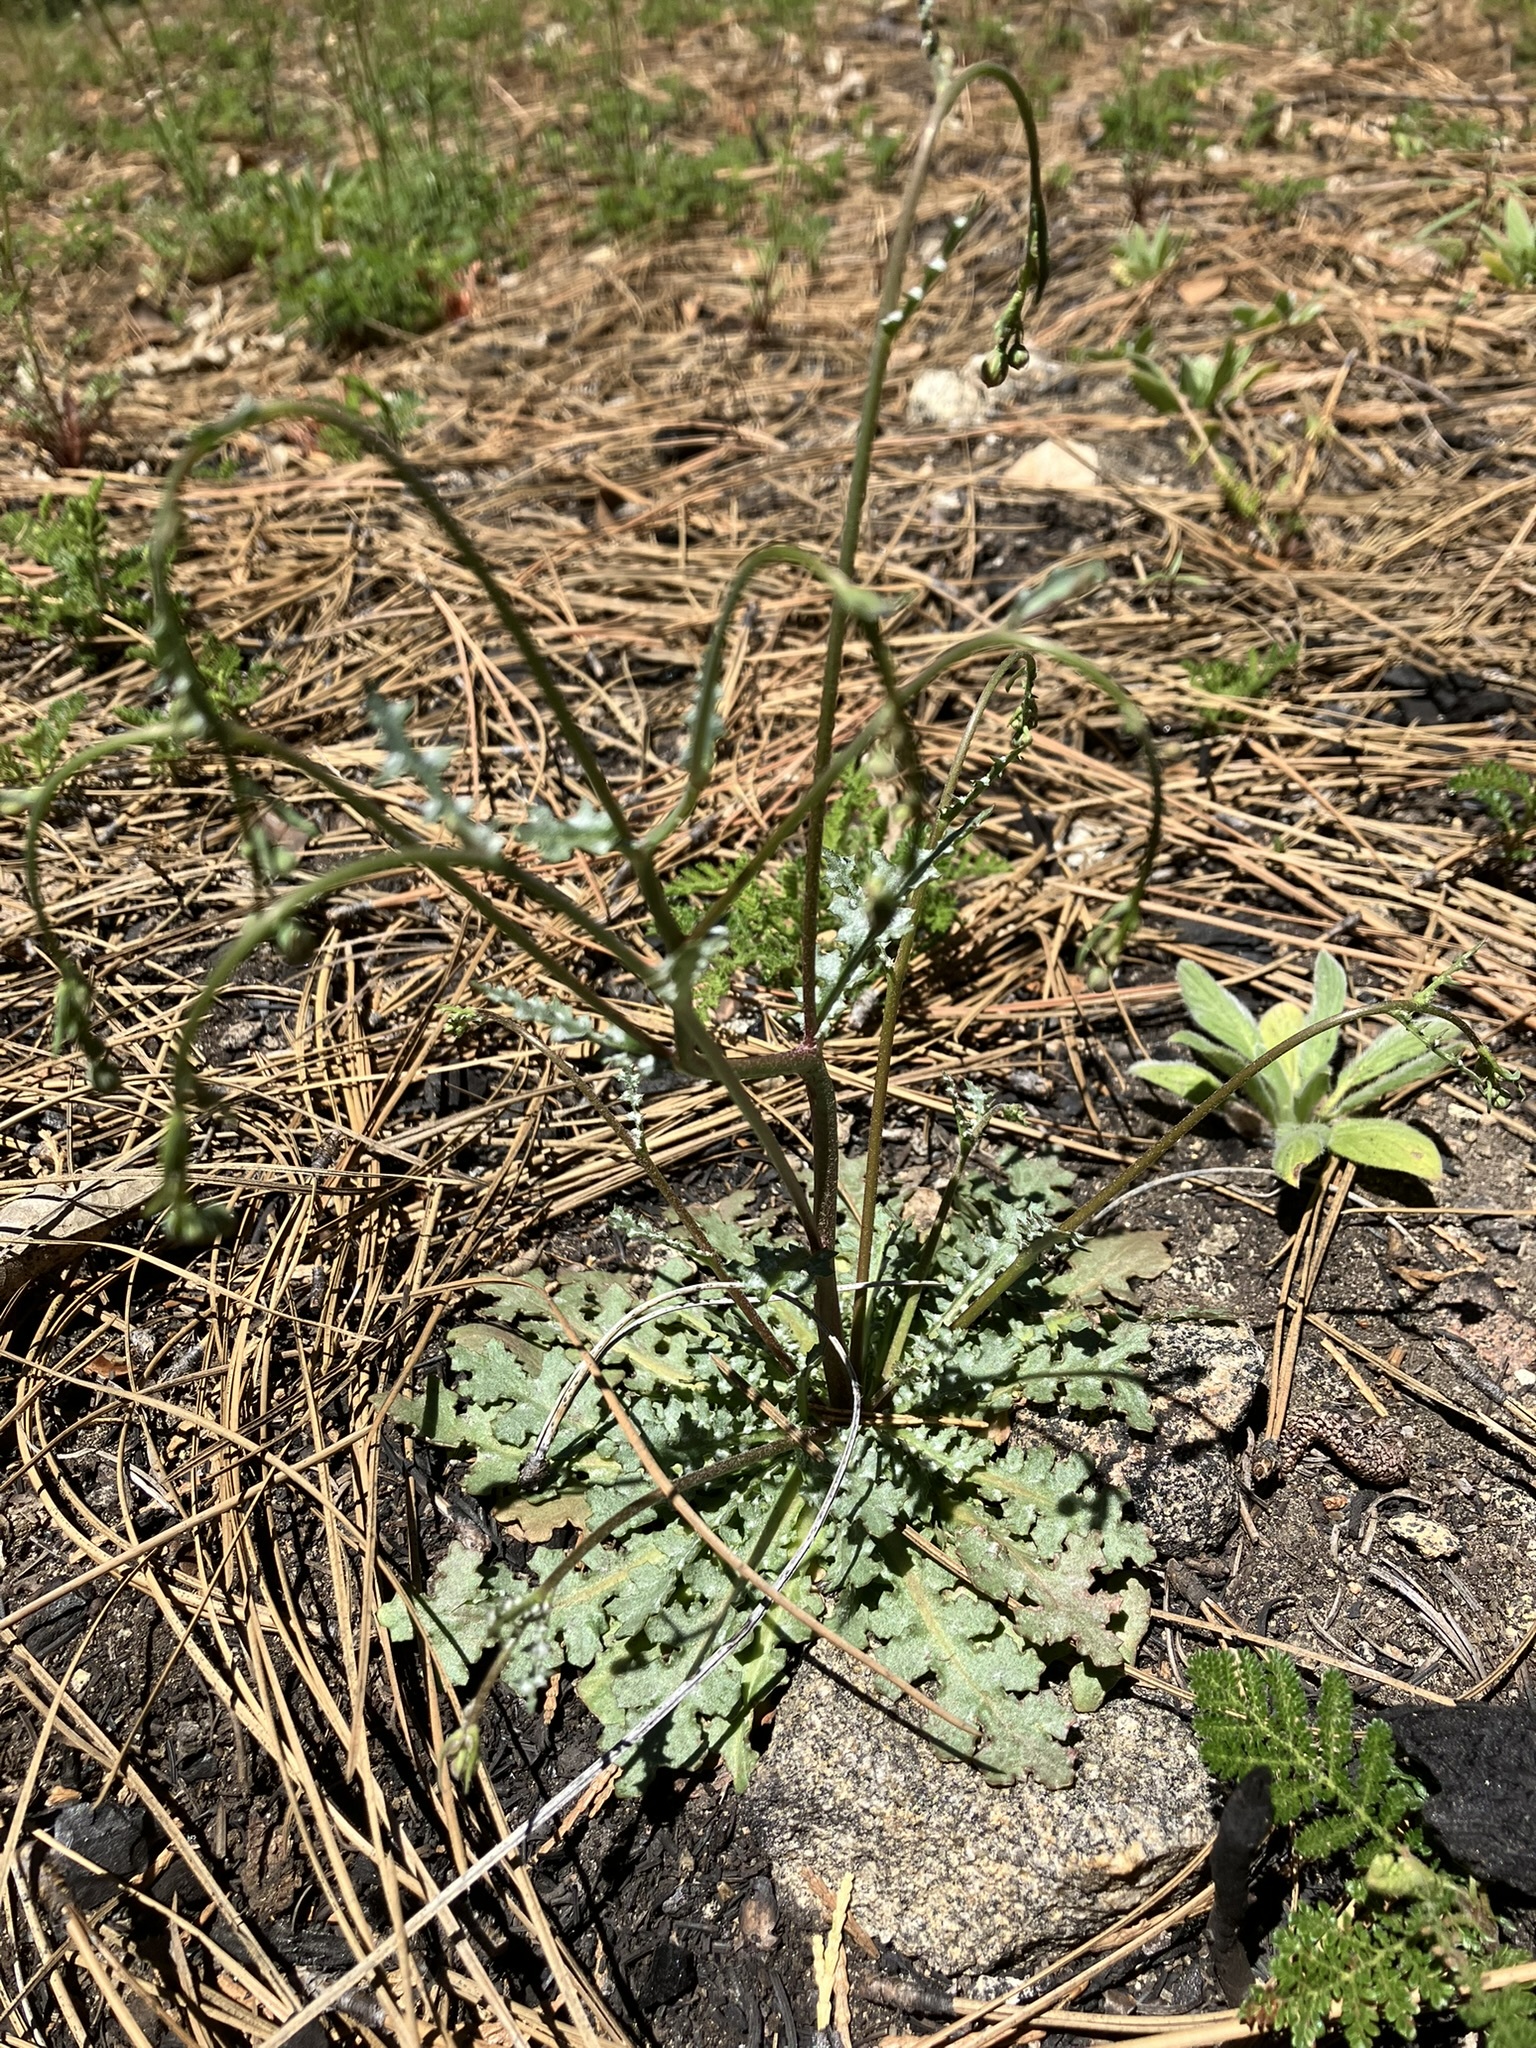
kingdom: Plantae
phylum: Tracheophyta
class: Magnoliopsida
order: Asterales
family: Asteraceae
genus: Malacothrix
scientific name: Malacothrix floccifera
